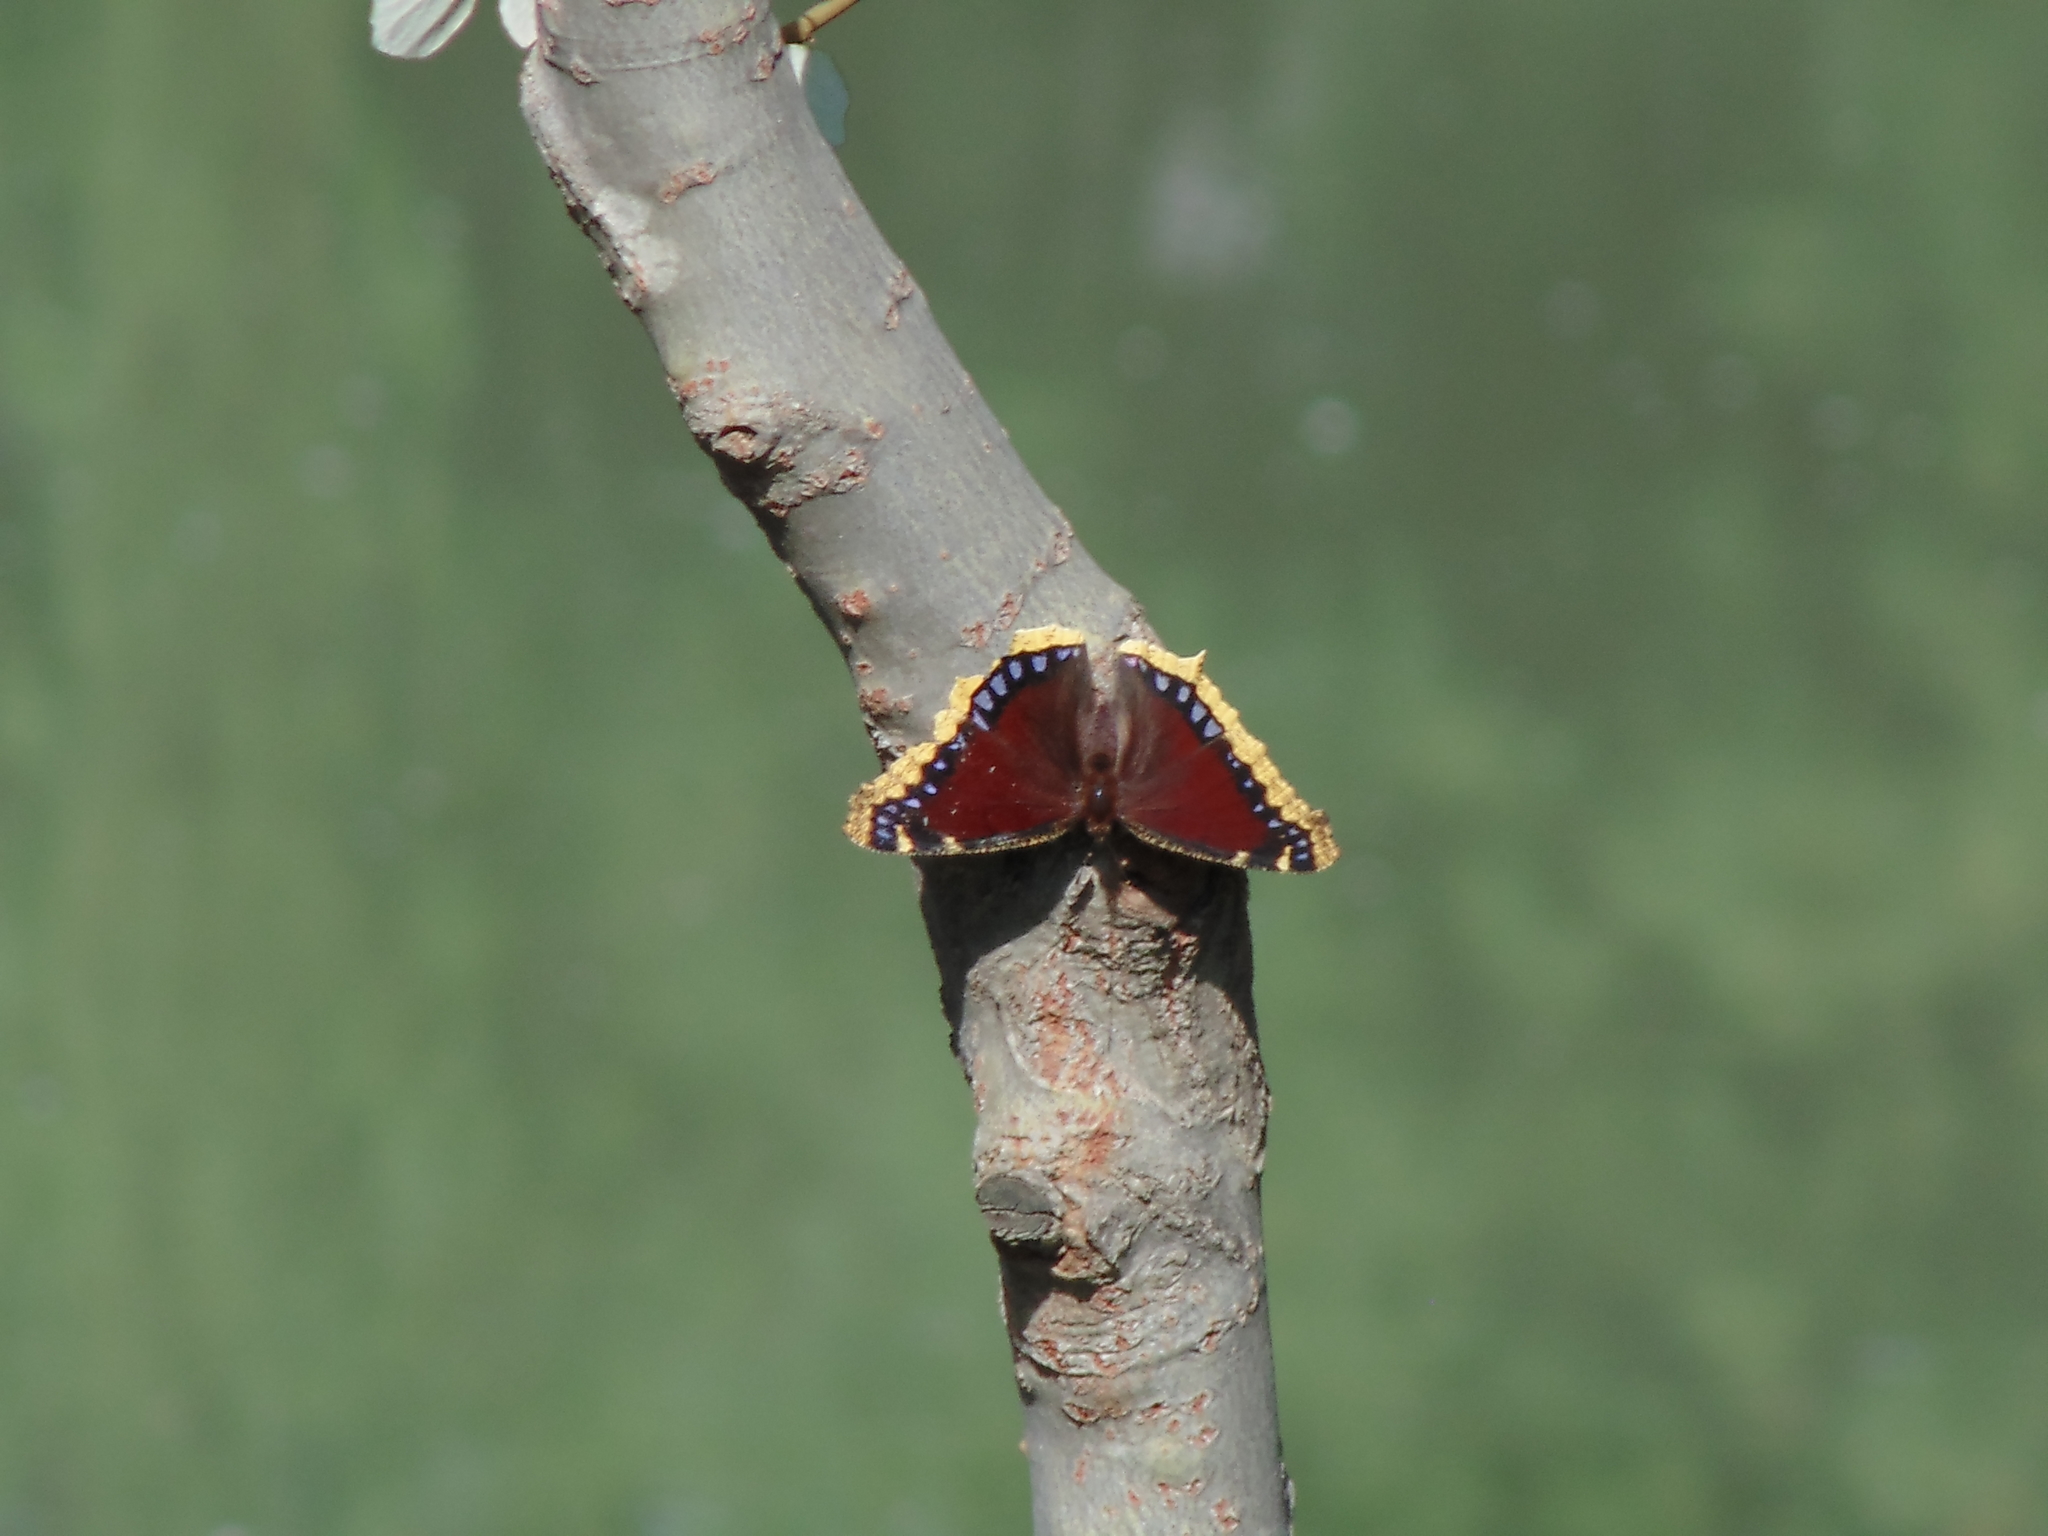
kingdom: Animalia
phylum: Arthropoda
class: Insecta
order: Lepidoptera
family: Nymphalidae
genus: Nymphalis
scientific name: Nymphalis antiopa
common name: Camberwell beauty
